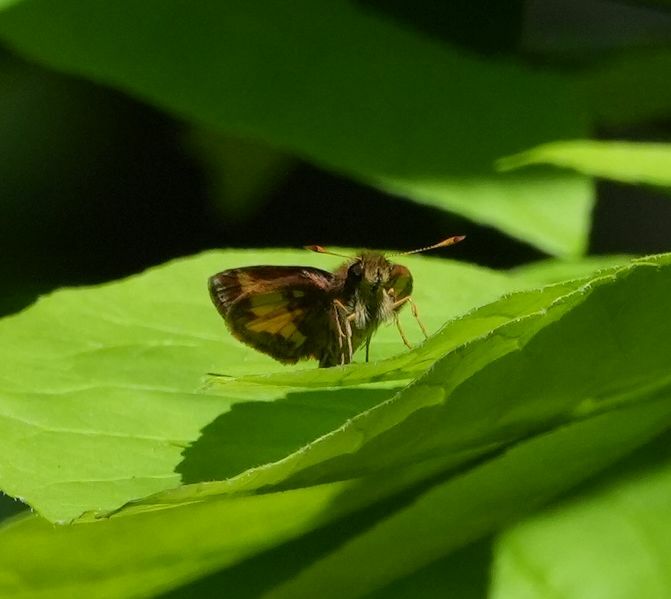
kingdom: Animalia
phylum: Arthropoda
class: Insecta
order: Lepidoptera
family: Hesperiidae
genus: Lon
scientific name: Lon hobomok
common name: Hobomok skipper
